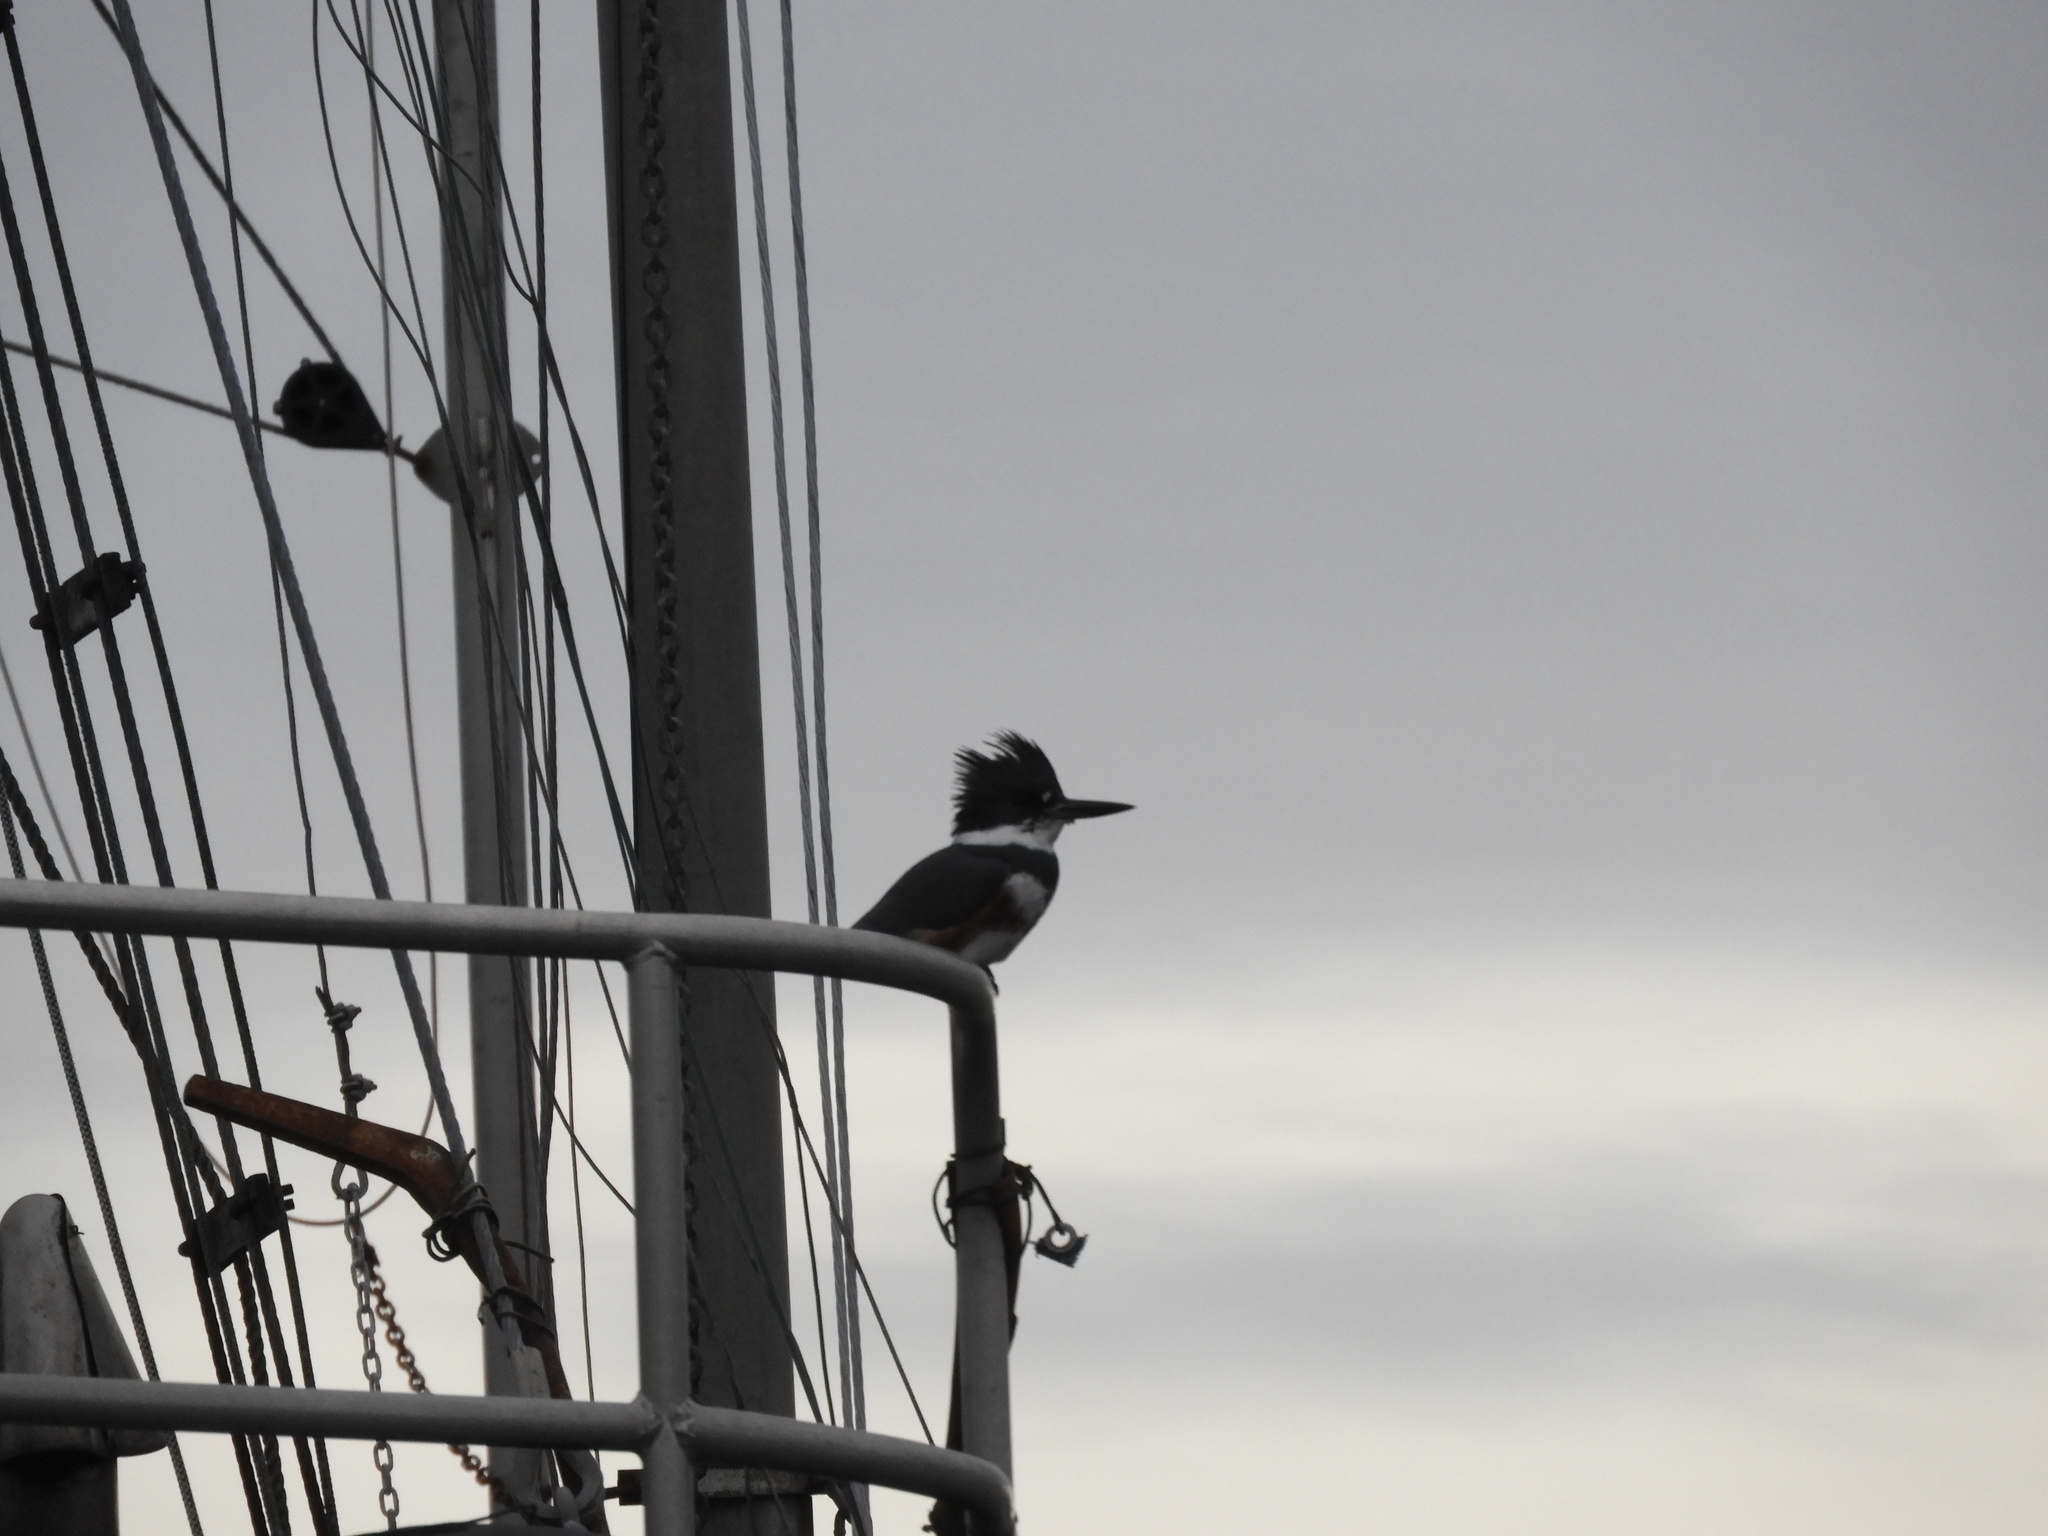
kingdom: Animalia
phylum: Chordata
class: Aves
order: Coraciiformes
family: Alcedinidae
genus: Megaceryle
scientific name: Megaceryle alcyon
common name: Belted kingfisher
